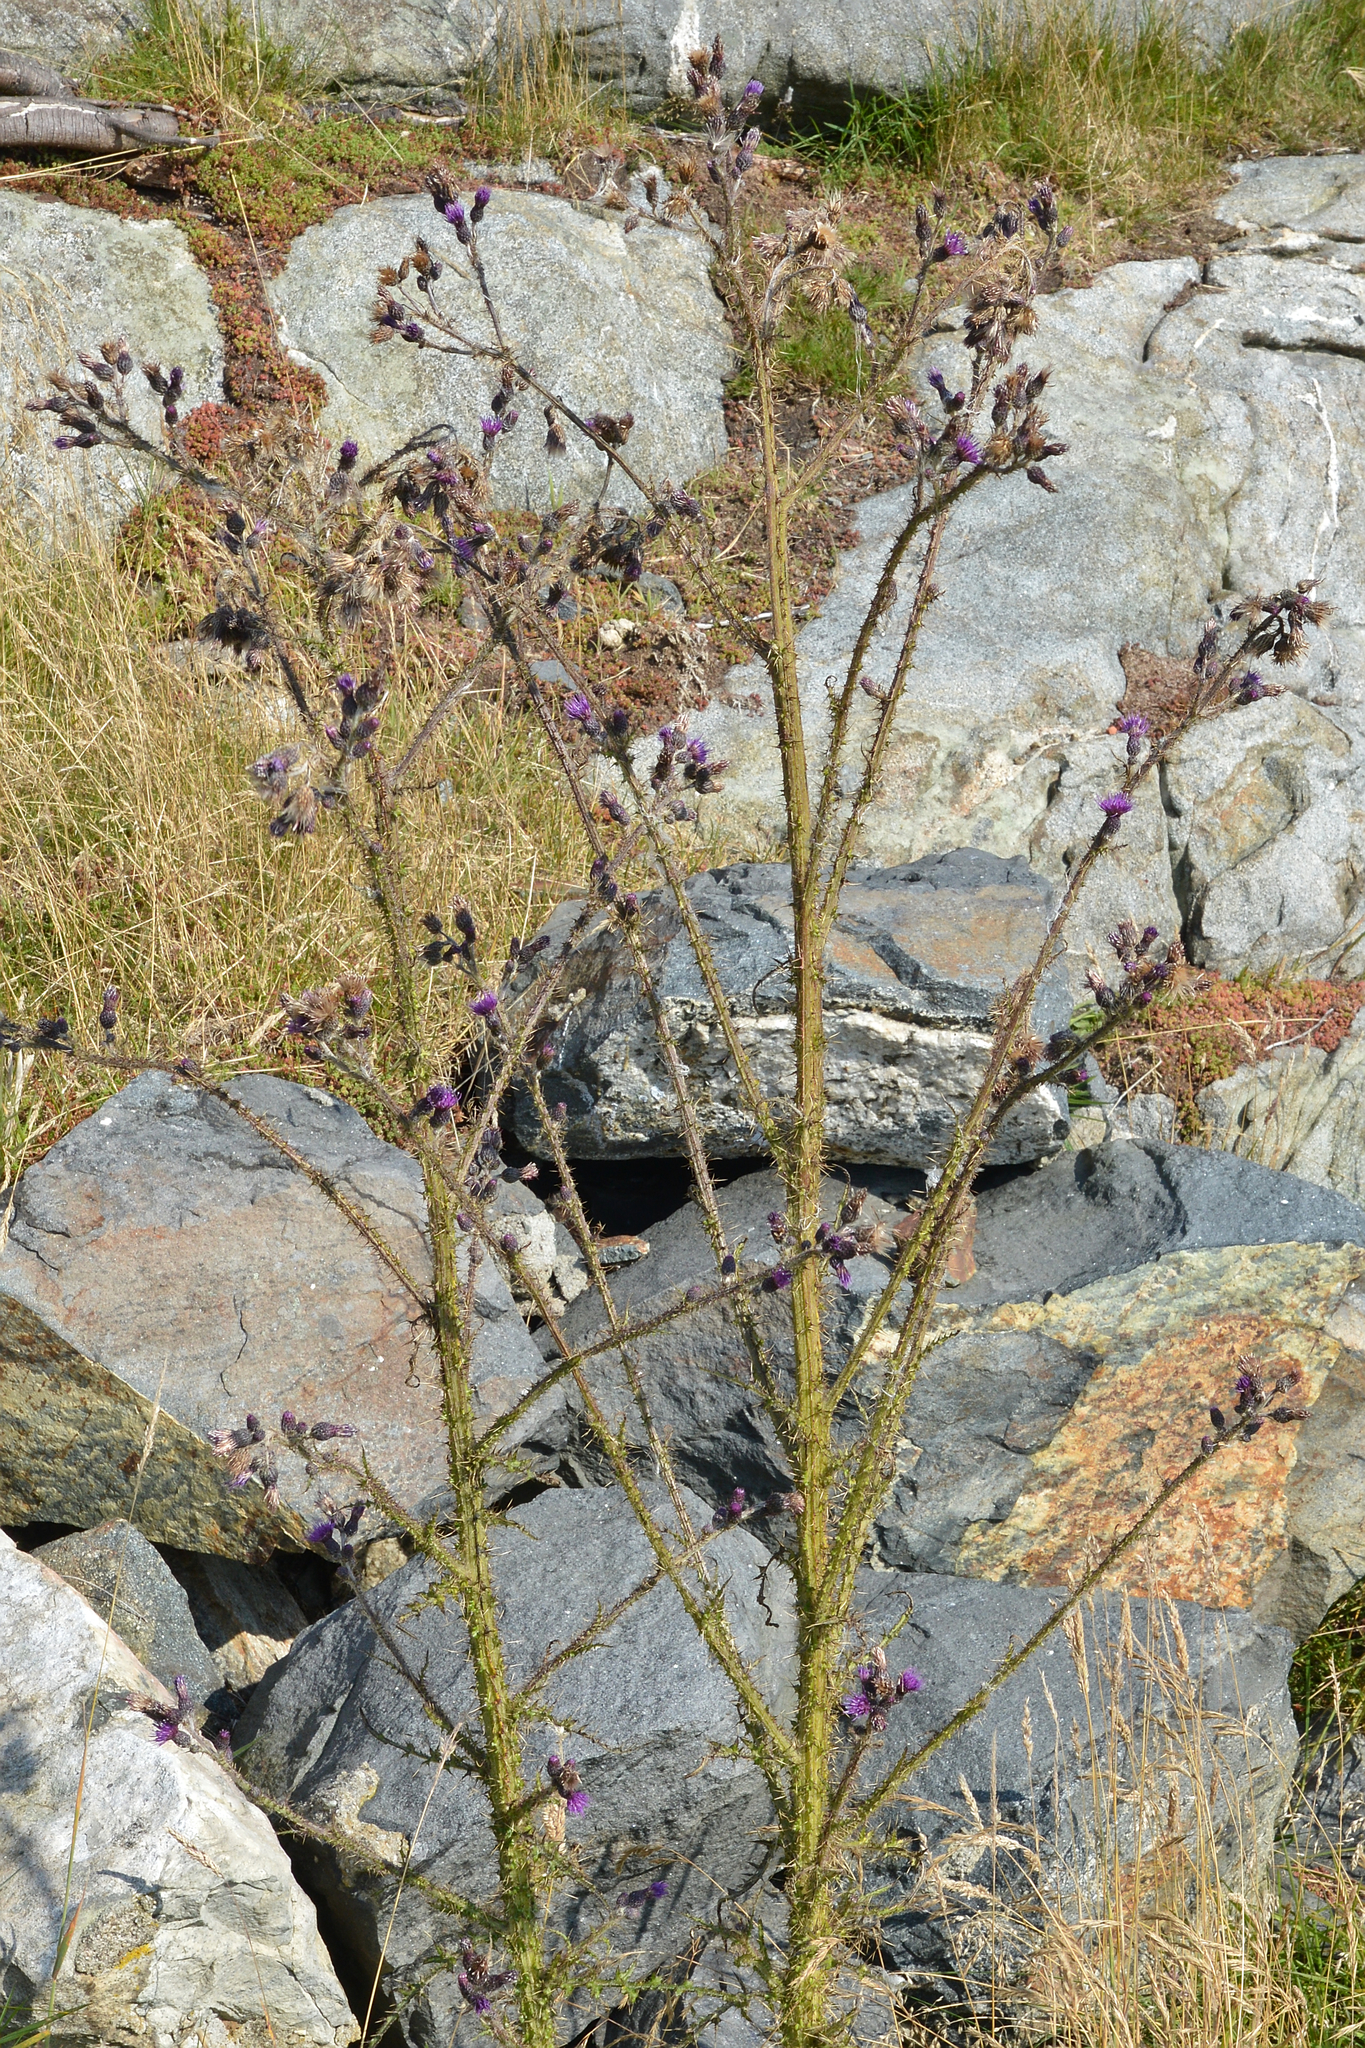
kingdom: Plantae
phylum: Tracheophyta
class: Magnoliopsida
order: Asterales
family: Asteraceae
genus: Cirsium
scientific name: Cirsium palustre
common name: Marsh thistle
